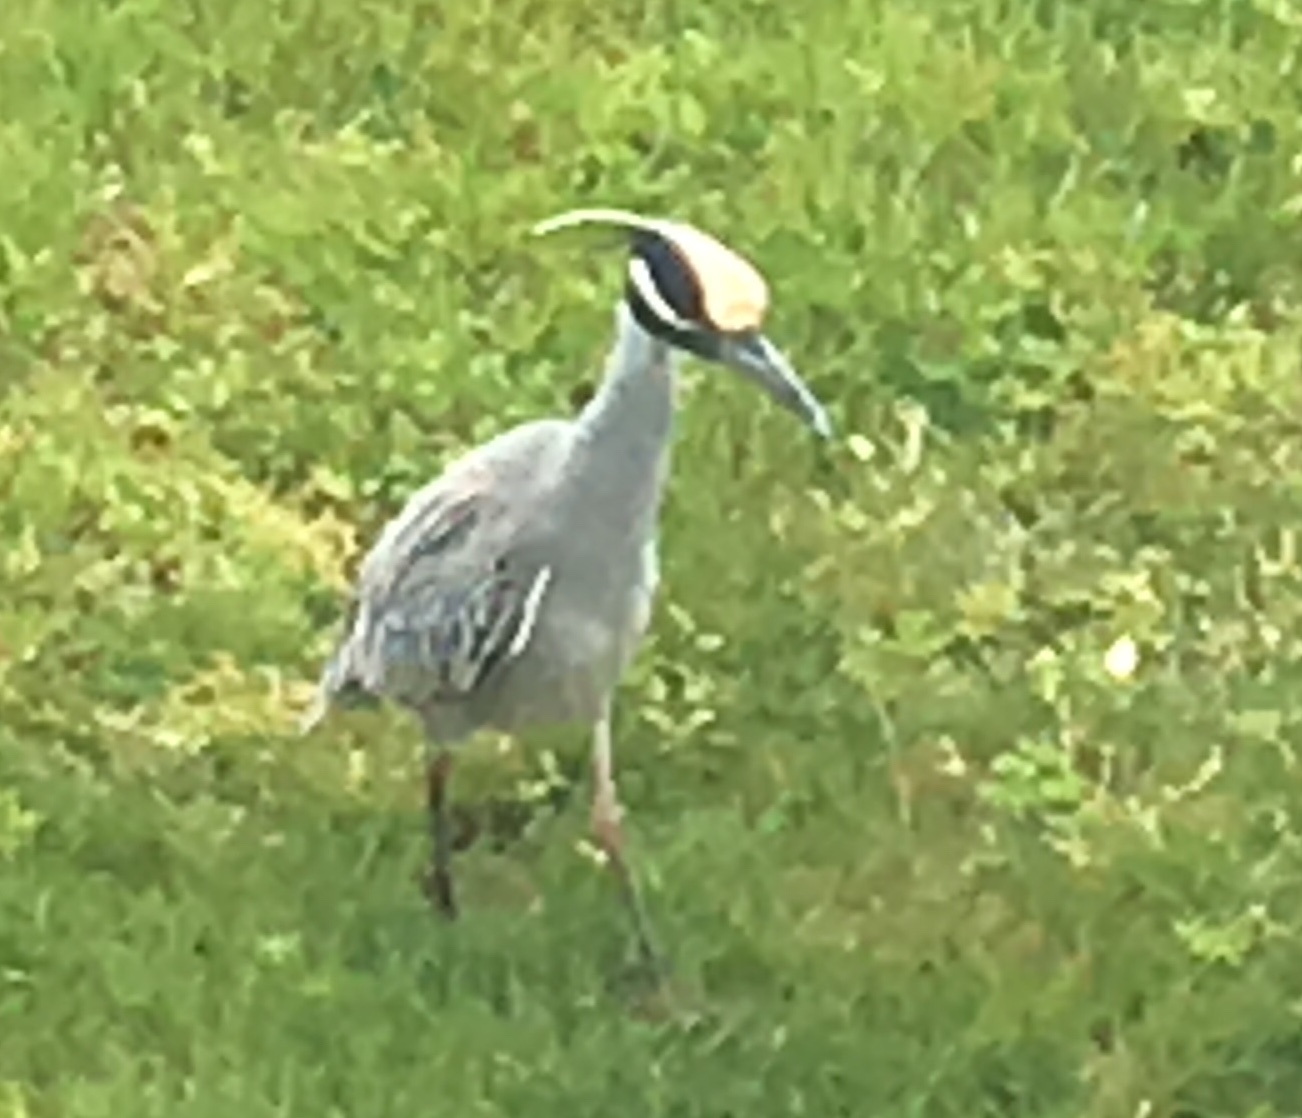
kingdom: Animalia
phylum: Chordata
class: Aves
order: Pelecaniformes
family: Ardeidae
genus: Nyctanassa
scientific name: Nyctanassa violacea
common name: Yellow-crowned night heron
